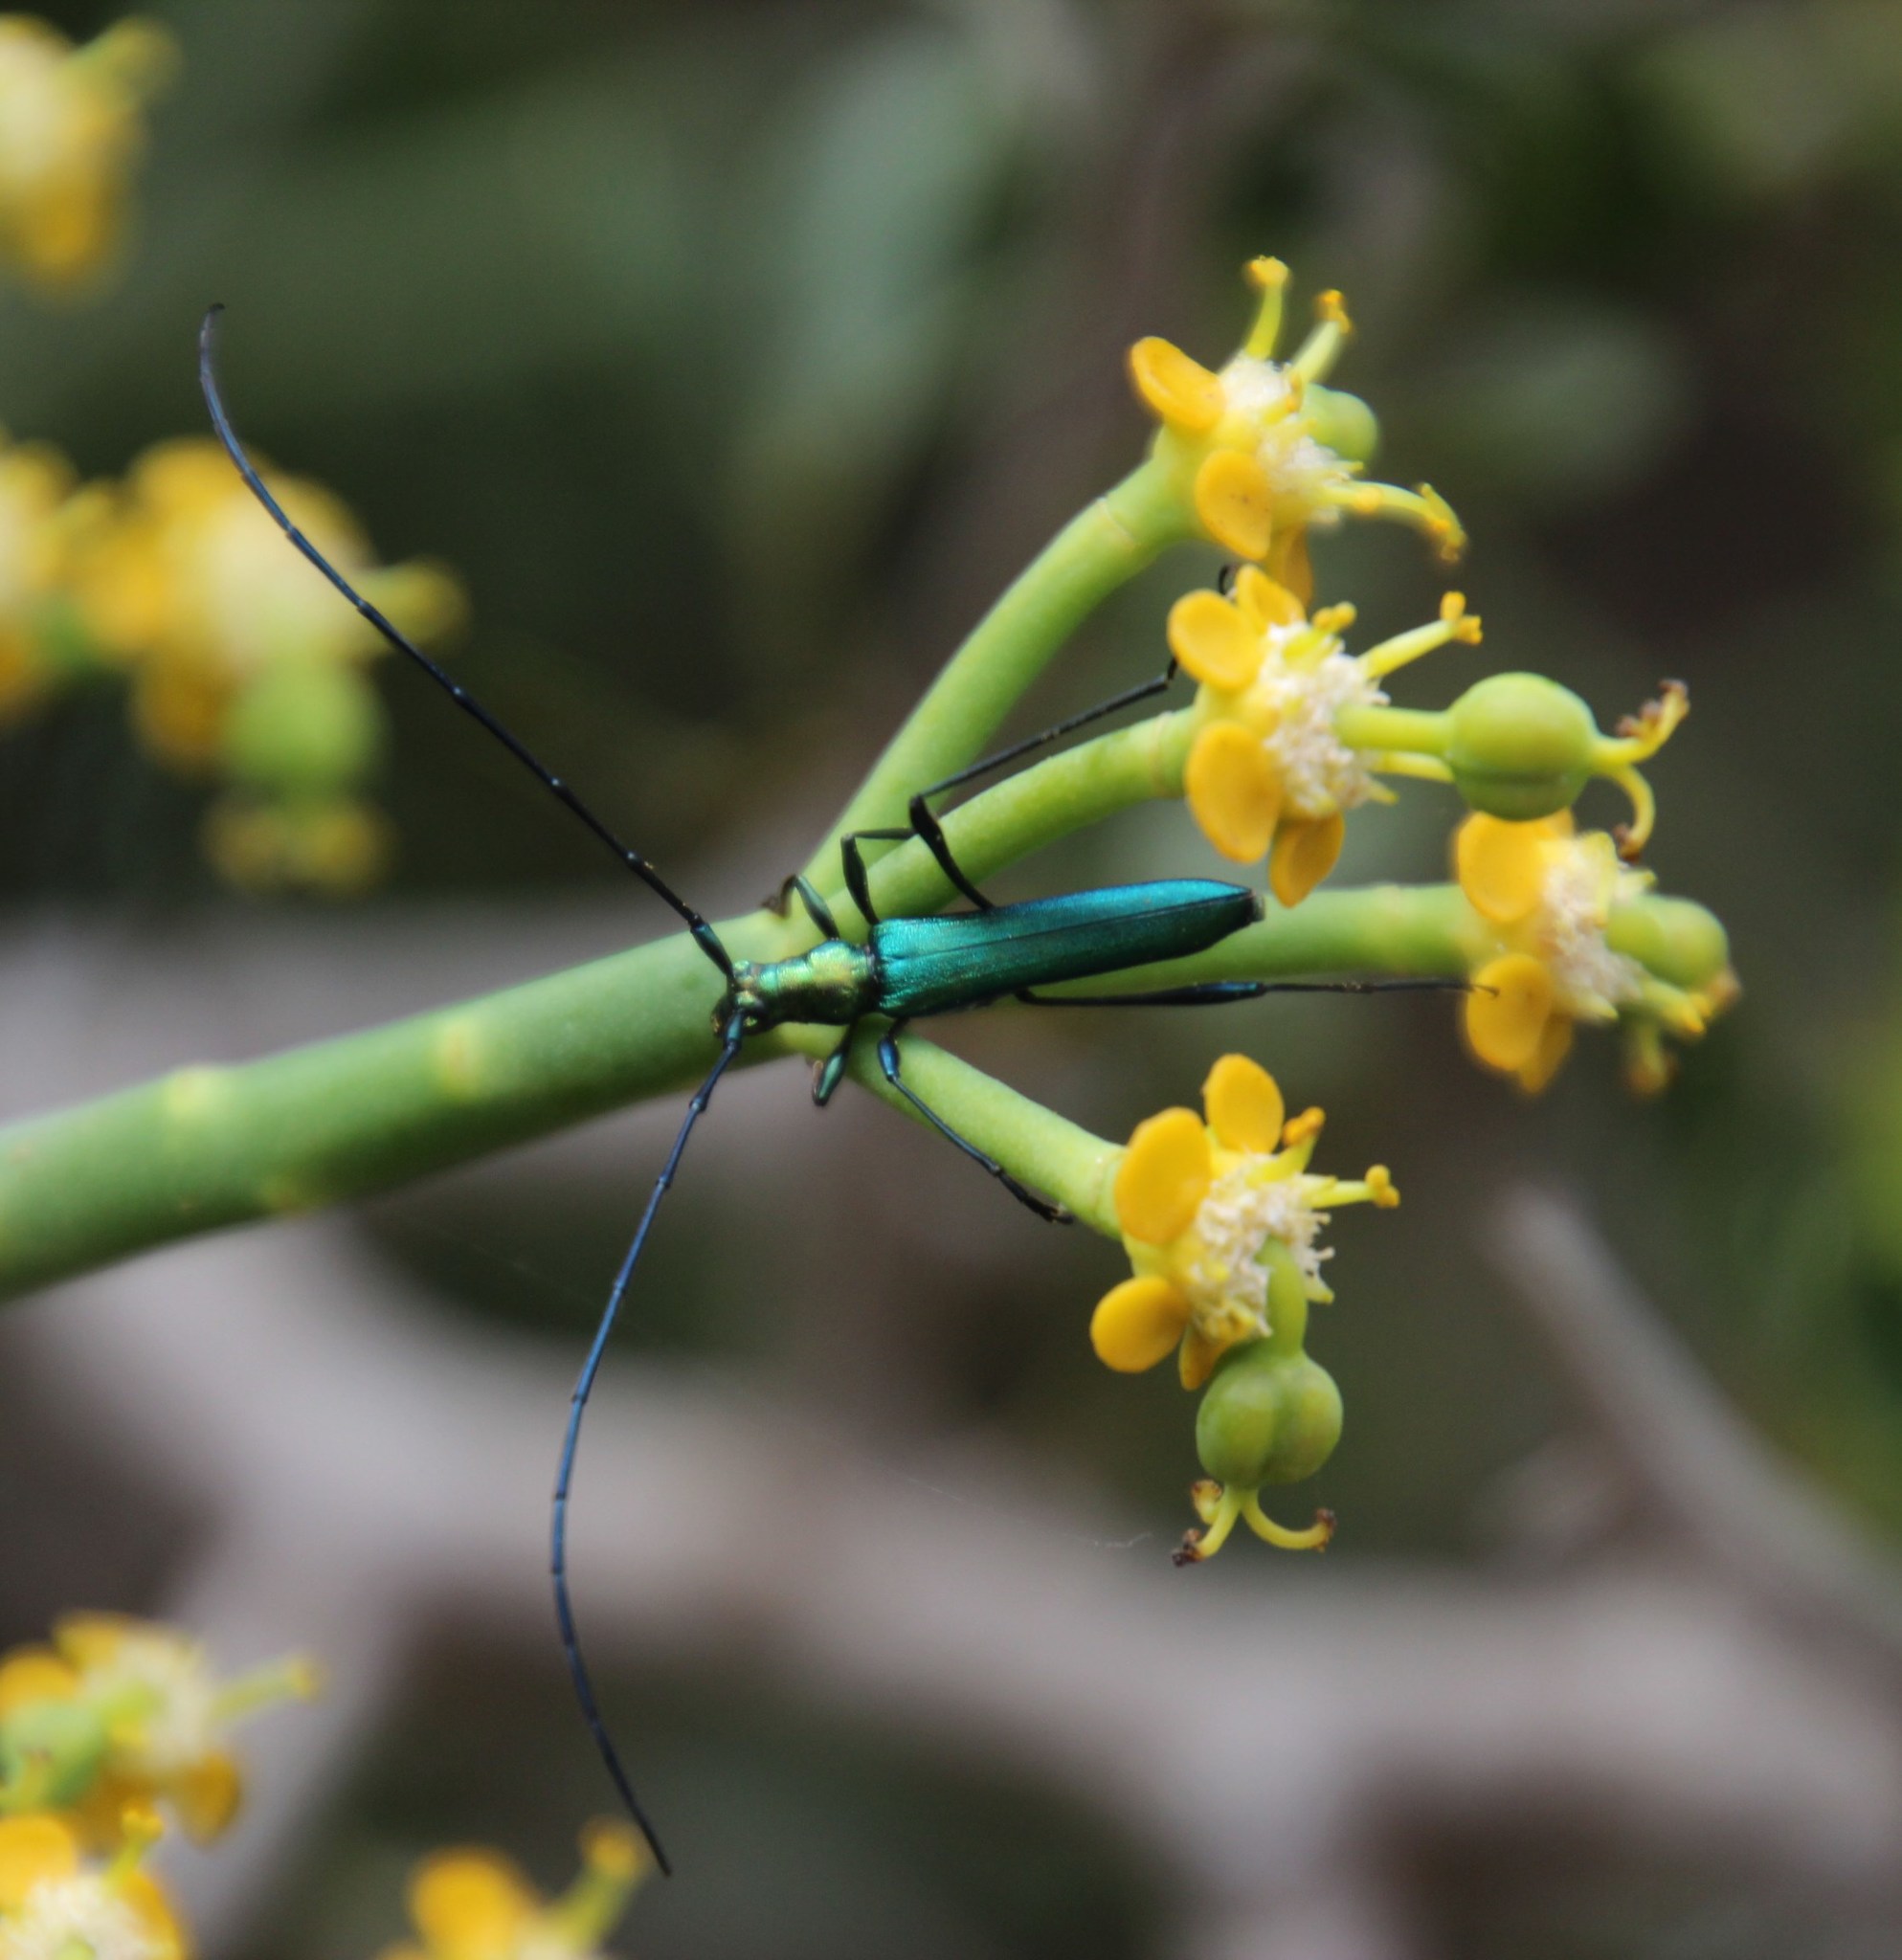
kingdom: Animalia
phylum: Arthropoda
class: Insecta
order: Coleoptera
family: Cerambycidae
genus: Promeces
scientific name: Promeces longipes
